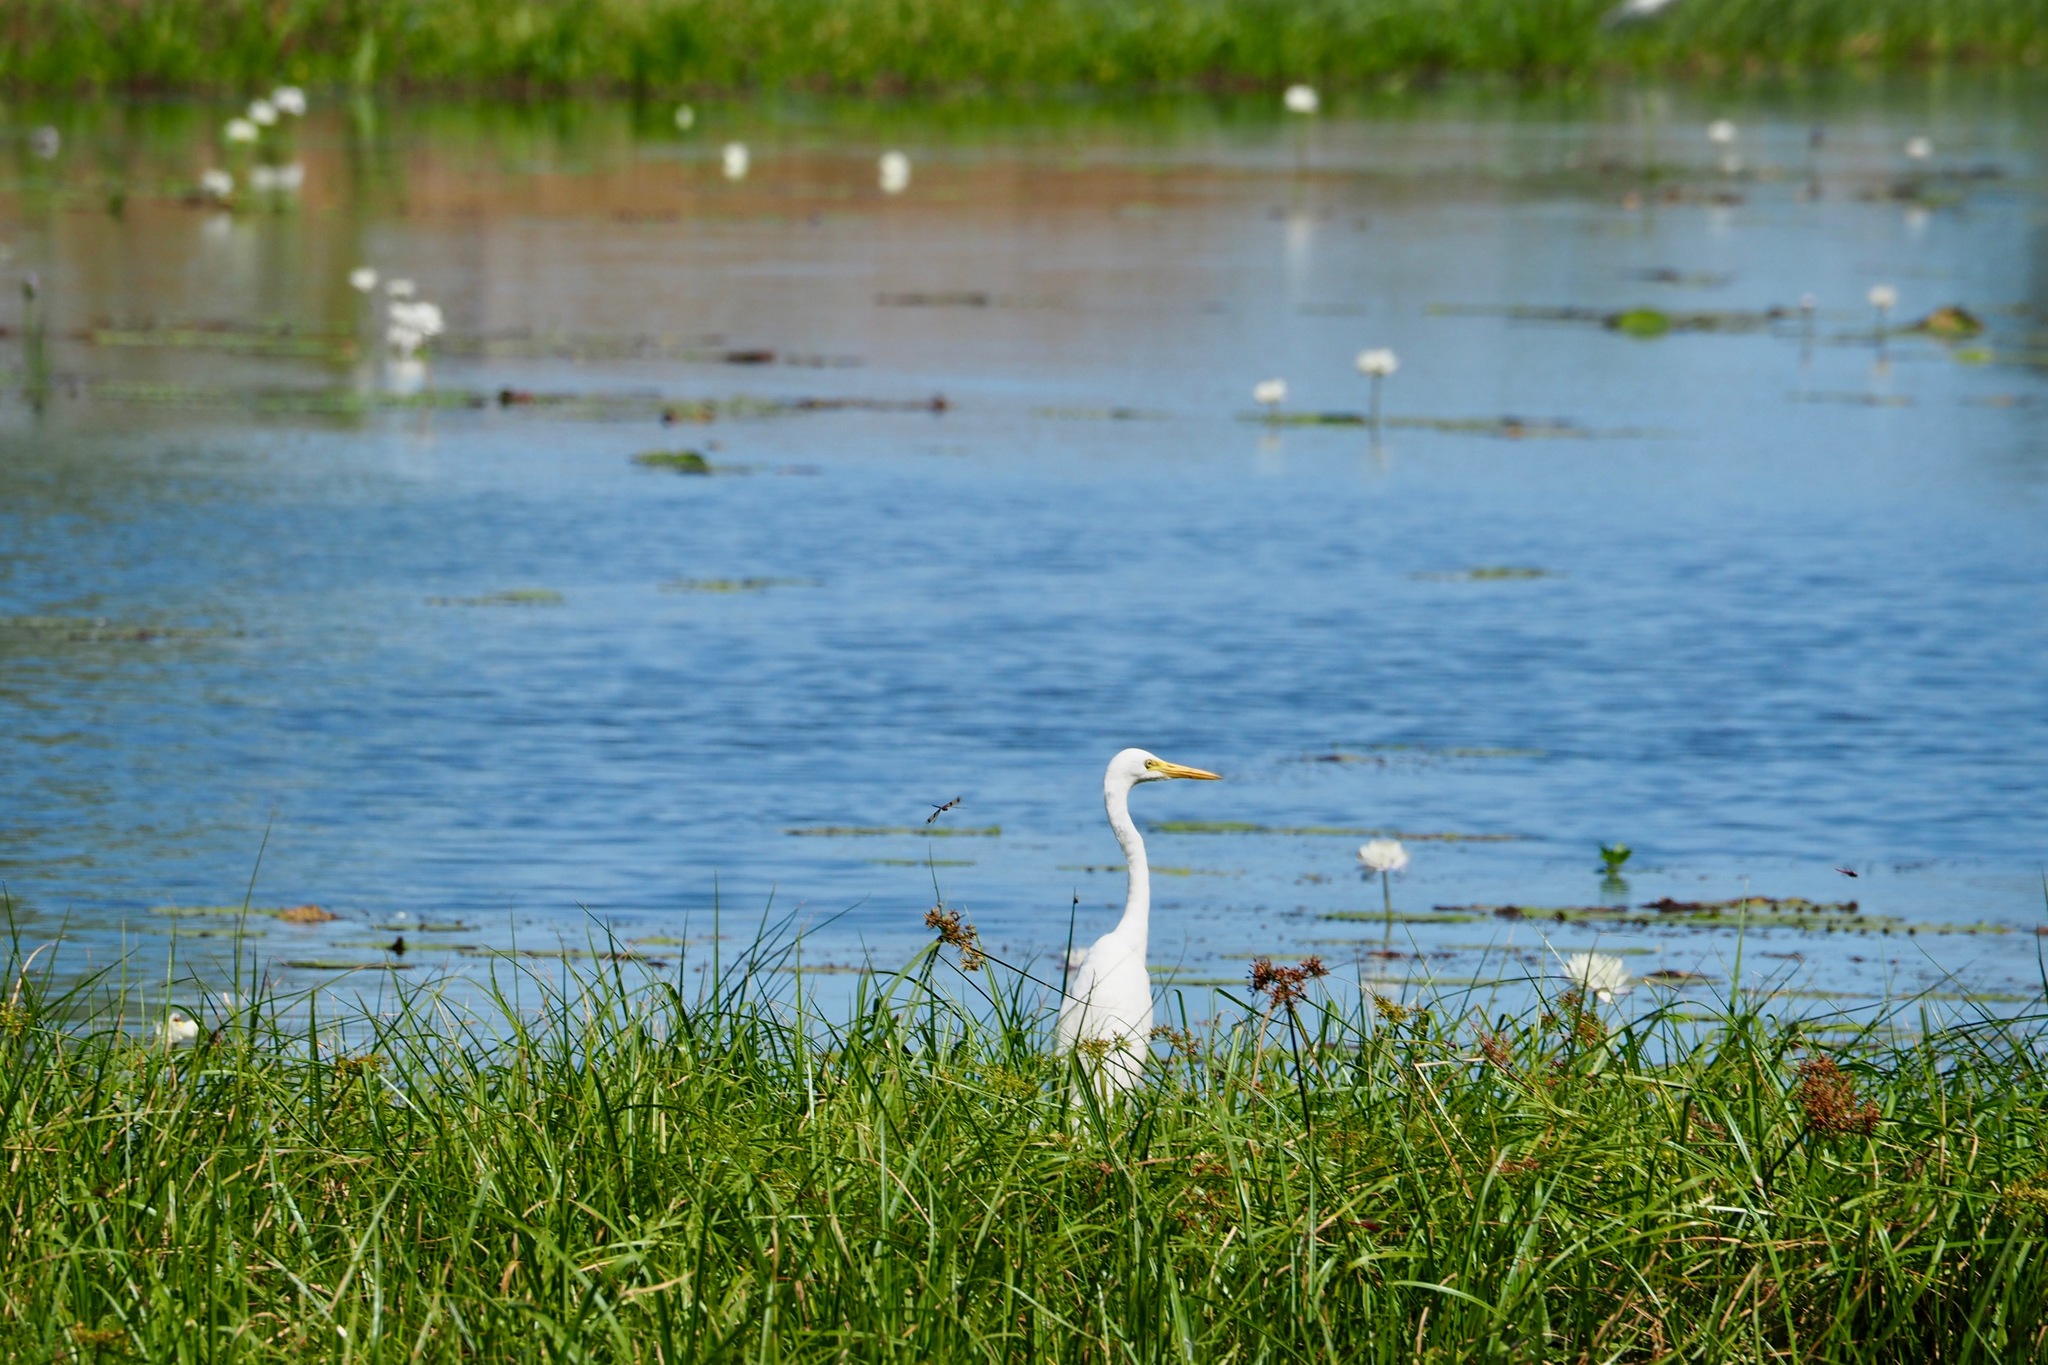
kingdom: Animalia
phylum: Chordata
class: Aves
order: Pelecaniformes
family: Ardeidae
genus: Egretta
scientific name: Egretta intermedia
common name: Intermediate egret
